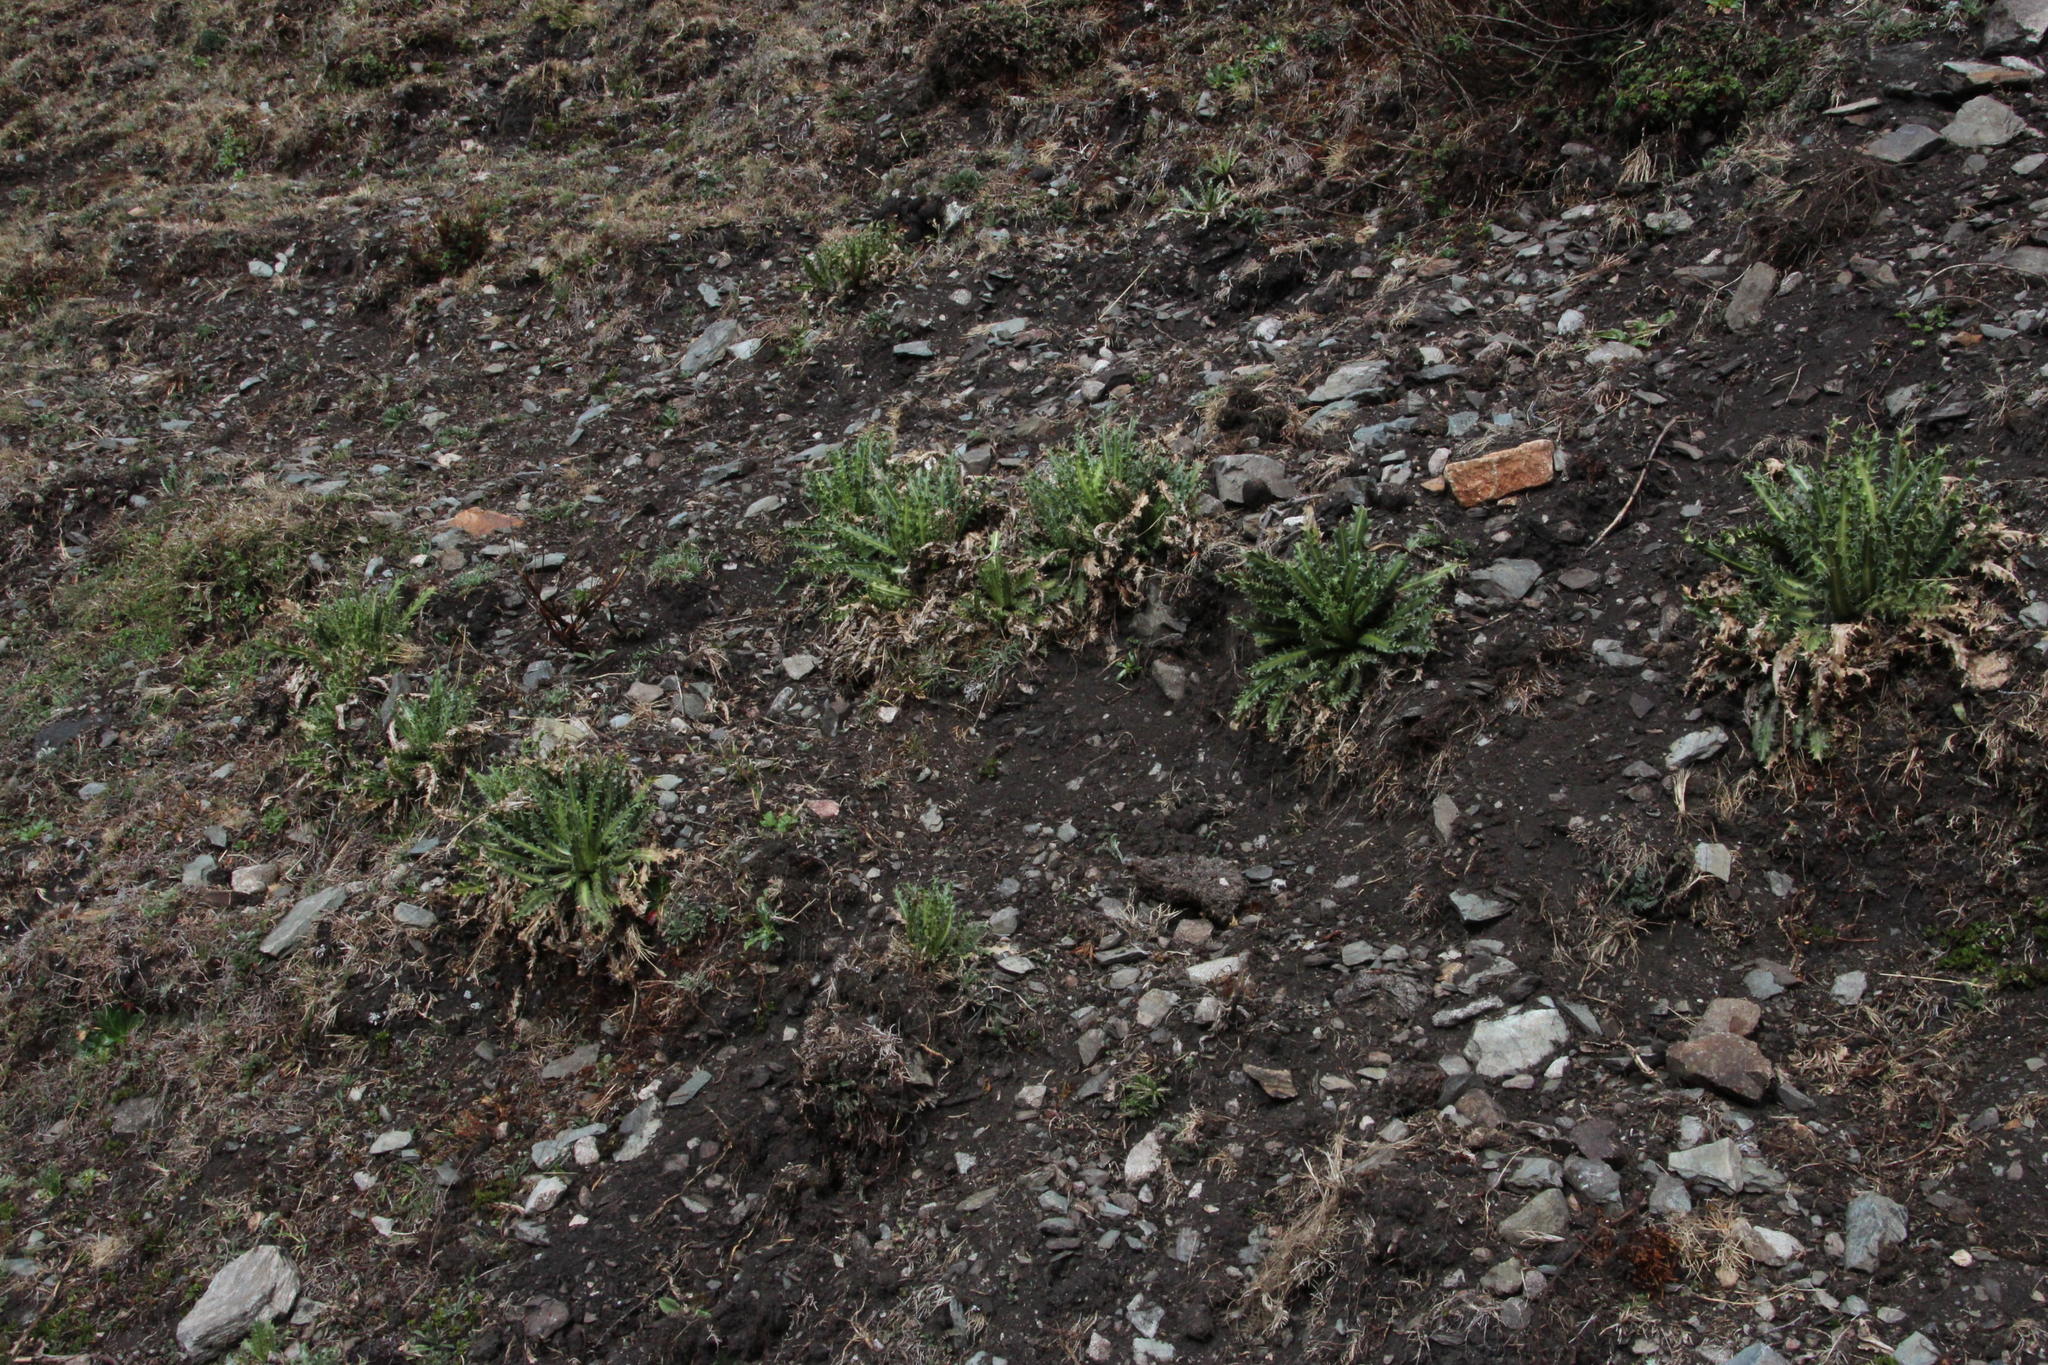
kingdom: Plantae
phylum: Tracheophyta
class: Magnoliopsida
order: Asterales
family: Asteraceae
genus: Perezia
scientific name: Perezia multiflora
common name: Perezia
